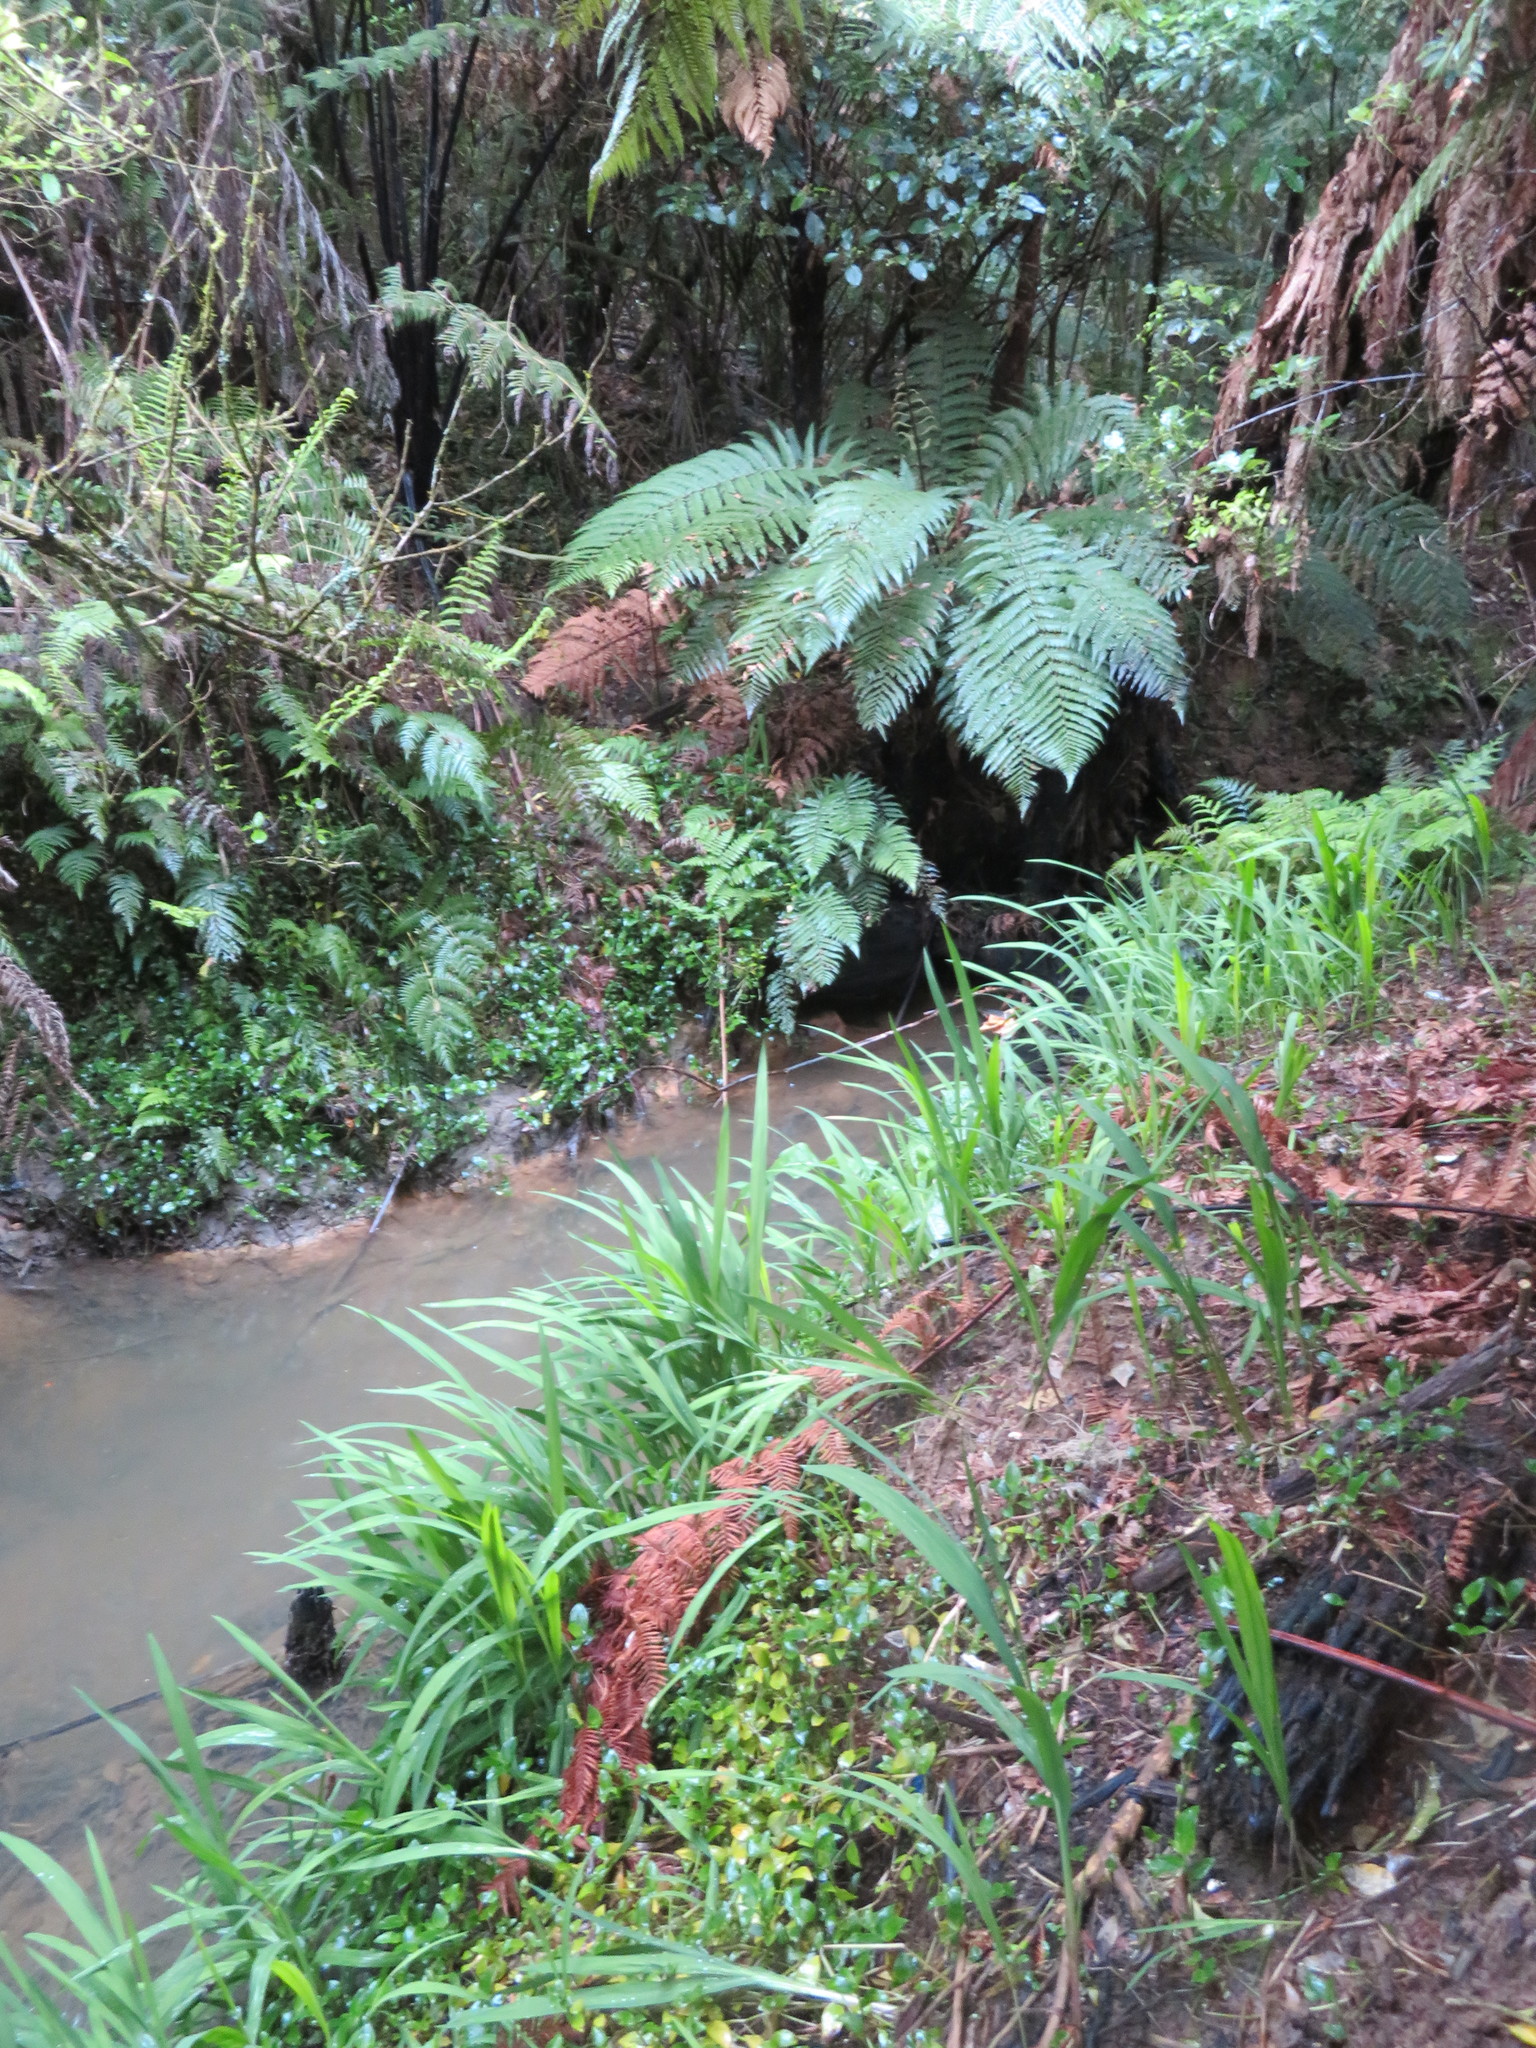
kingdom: Plantae
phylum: Tracheophyta
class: Liliopsida
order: Asparagales
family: Iridaceae
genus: Crocosmia
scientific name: Crocosmia crocosmiiflora
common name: Montbretia
